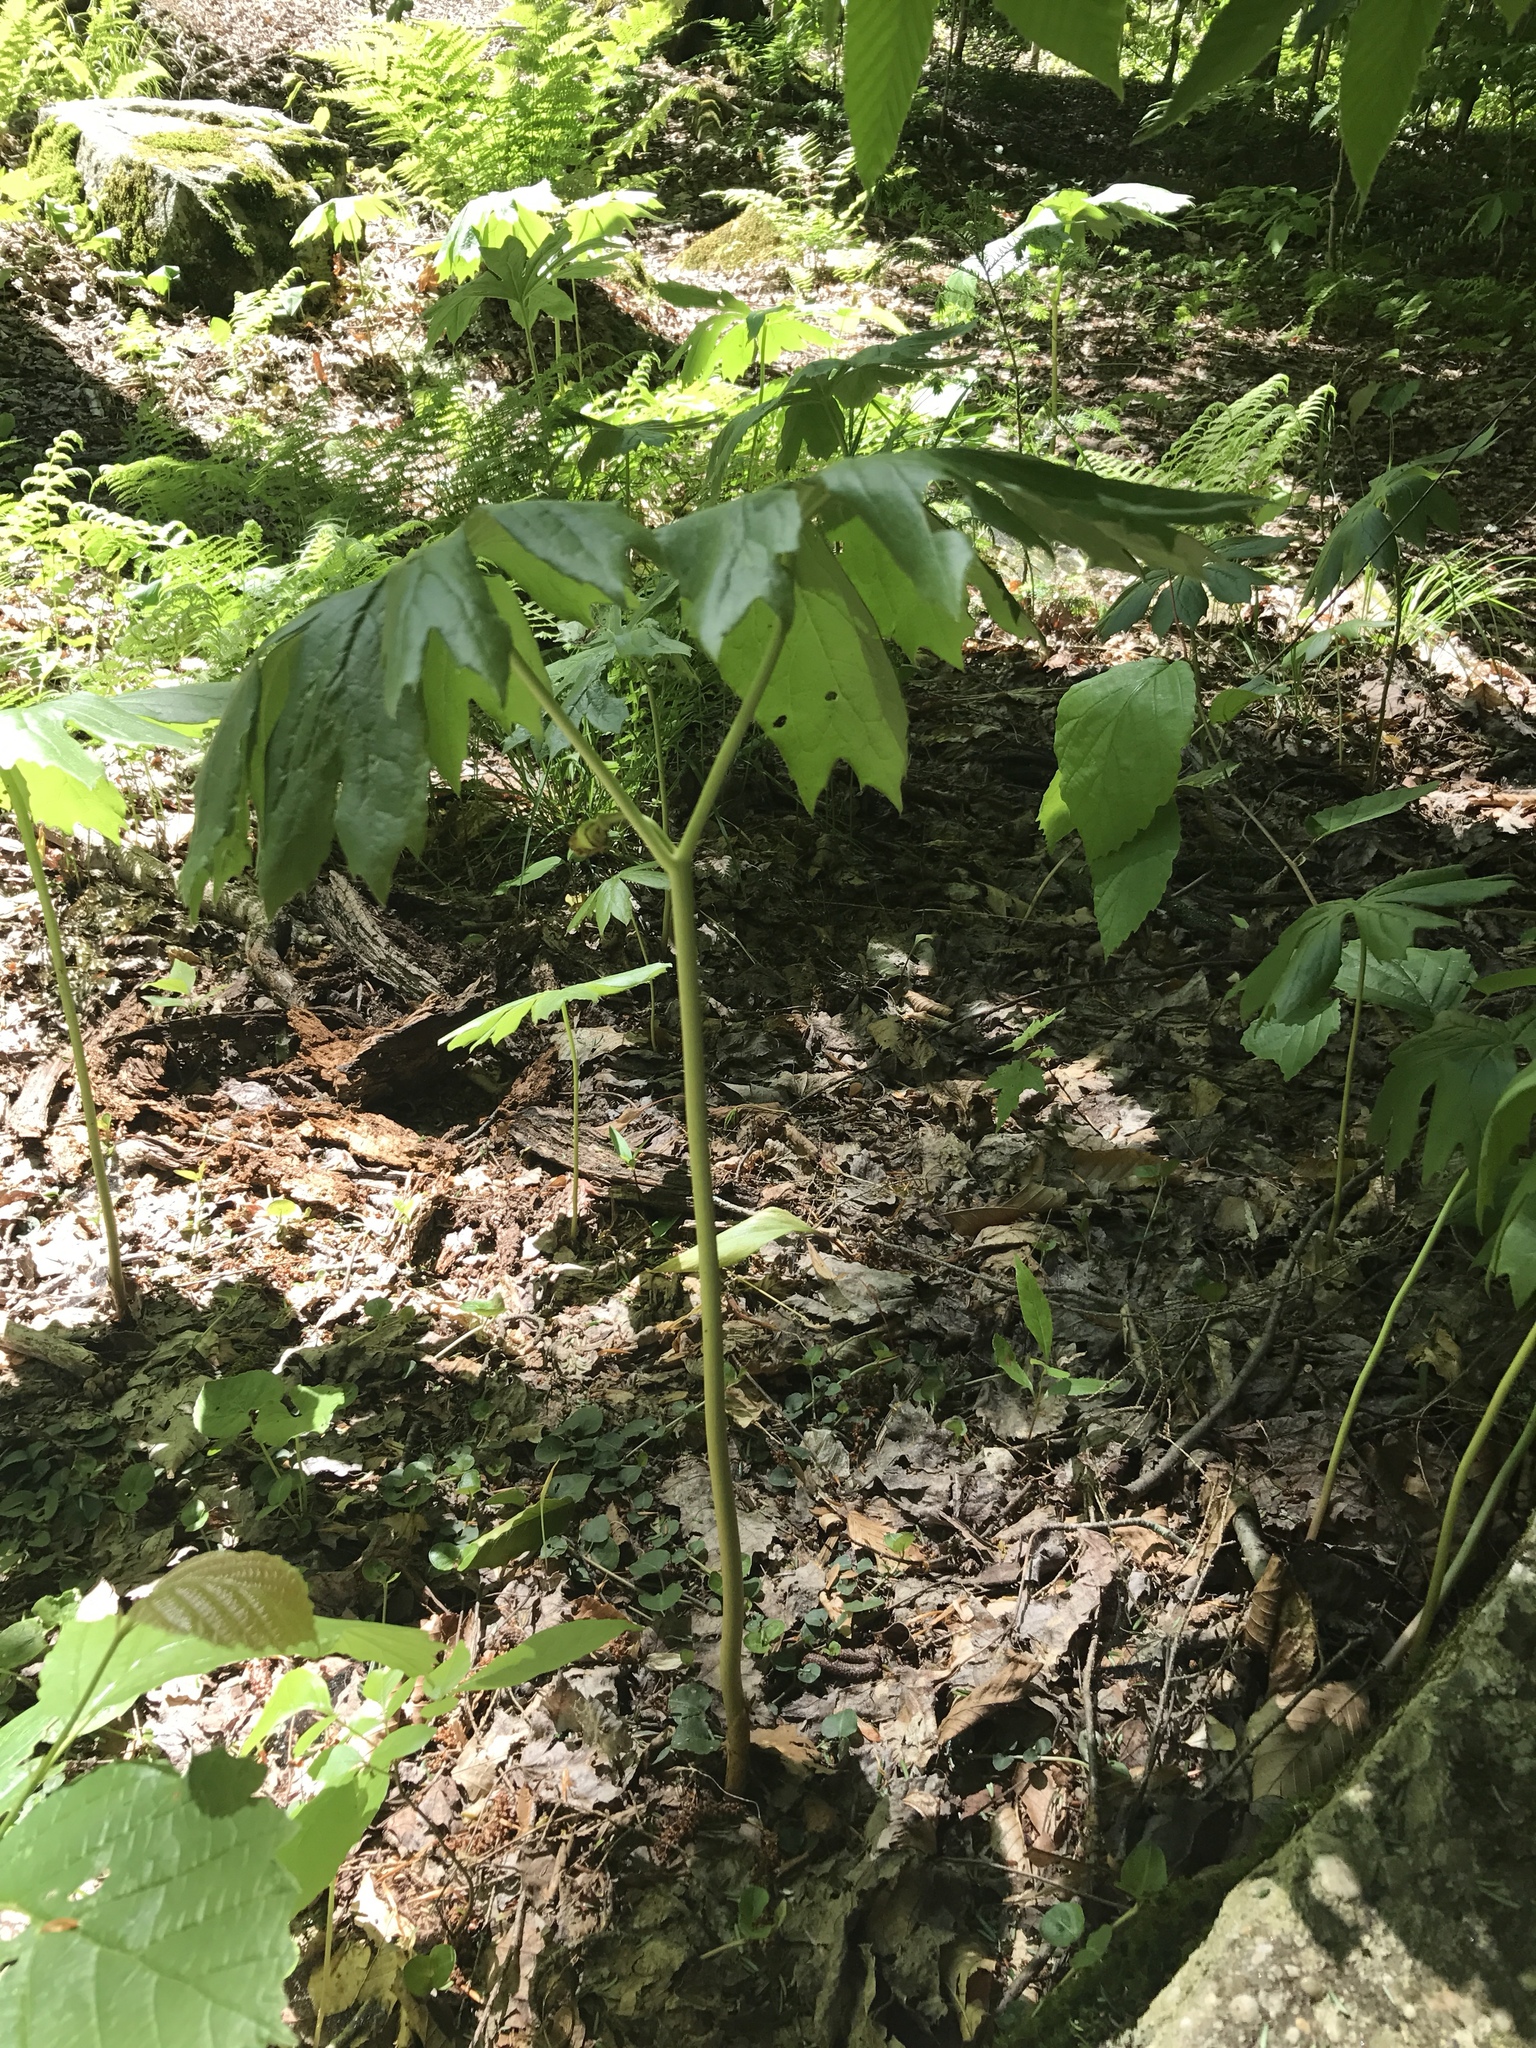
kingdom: Plantae
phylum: Tracheophyta
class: Magnoliopsida
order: Ranunculales
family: Berberidaceae
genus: Podophyllum
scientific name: Podophyllum peltatum
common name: Wild mandrake
